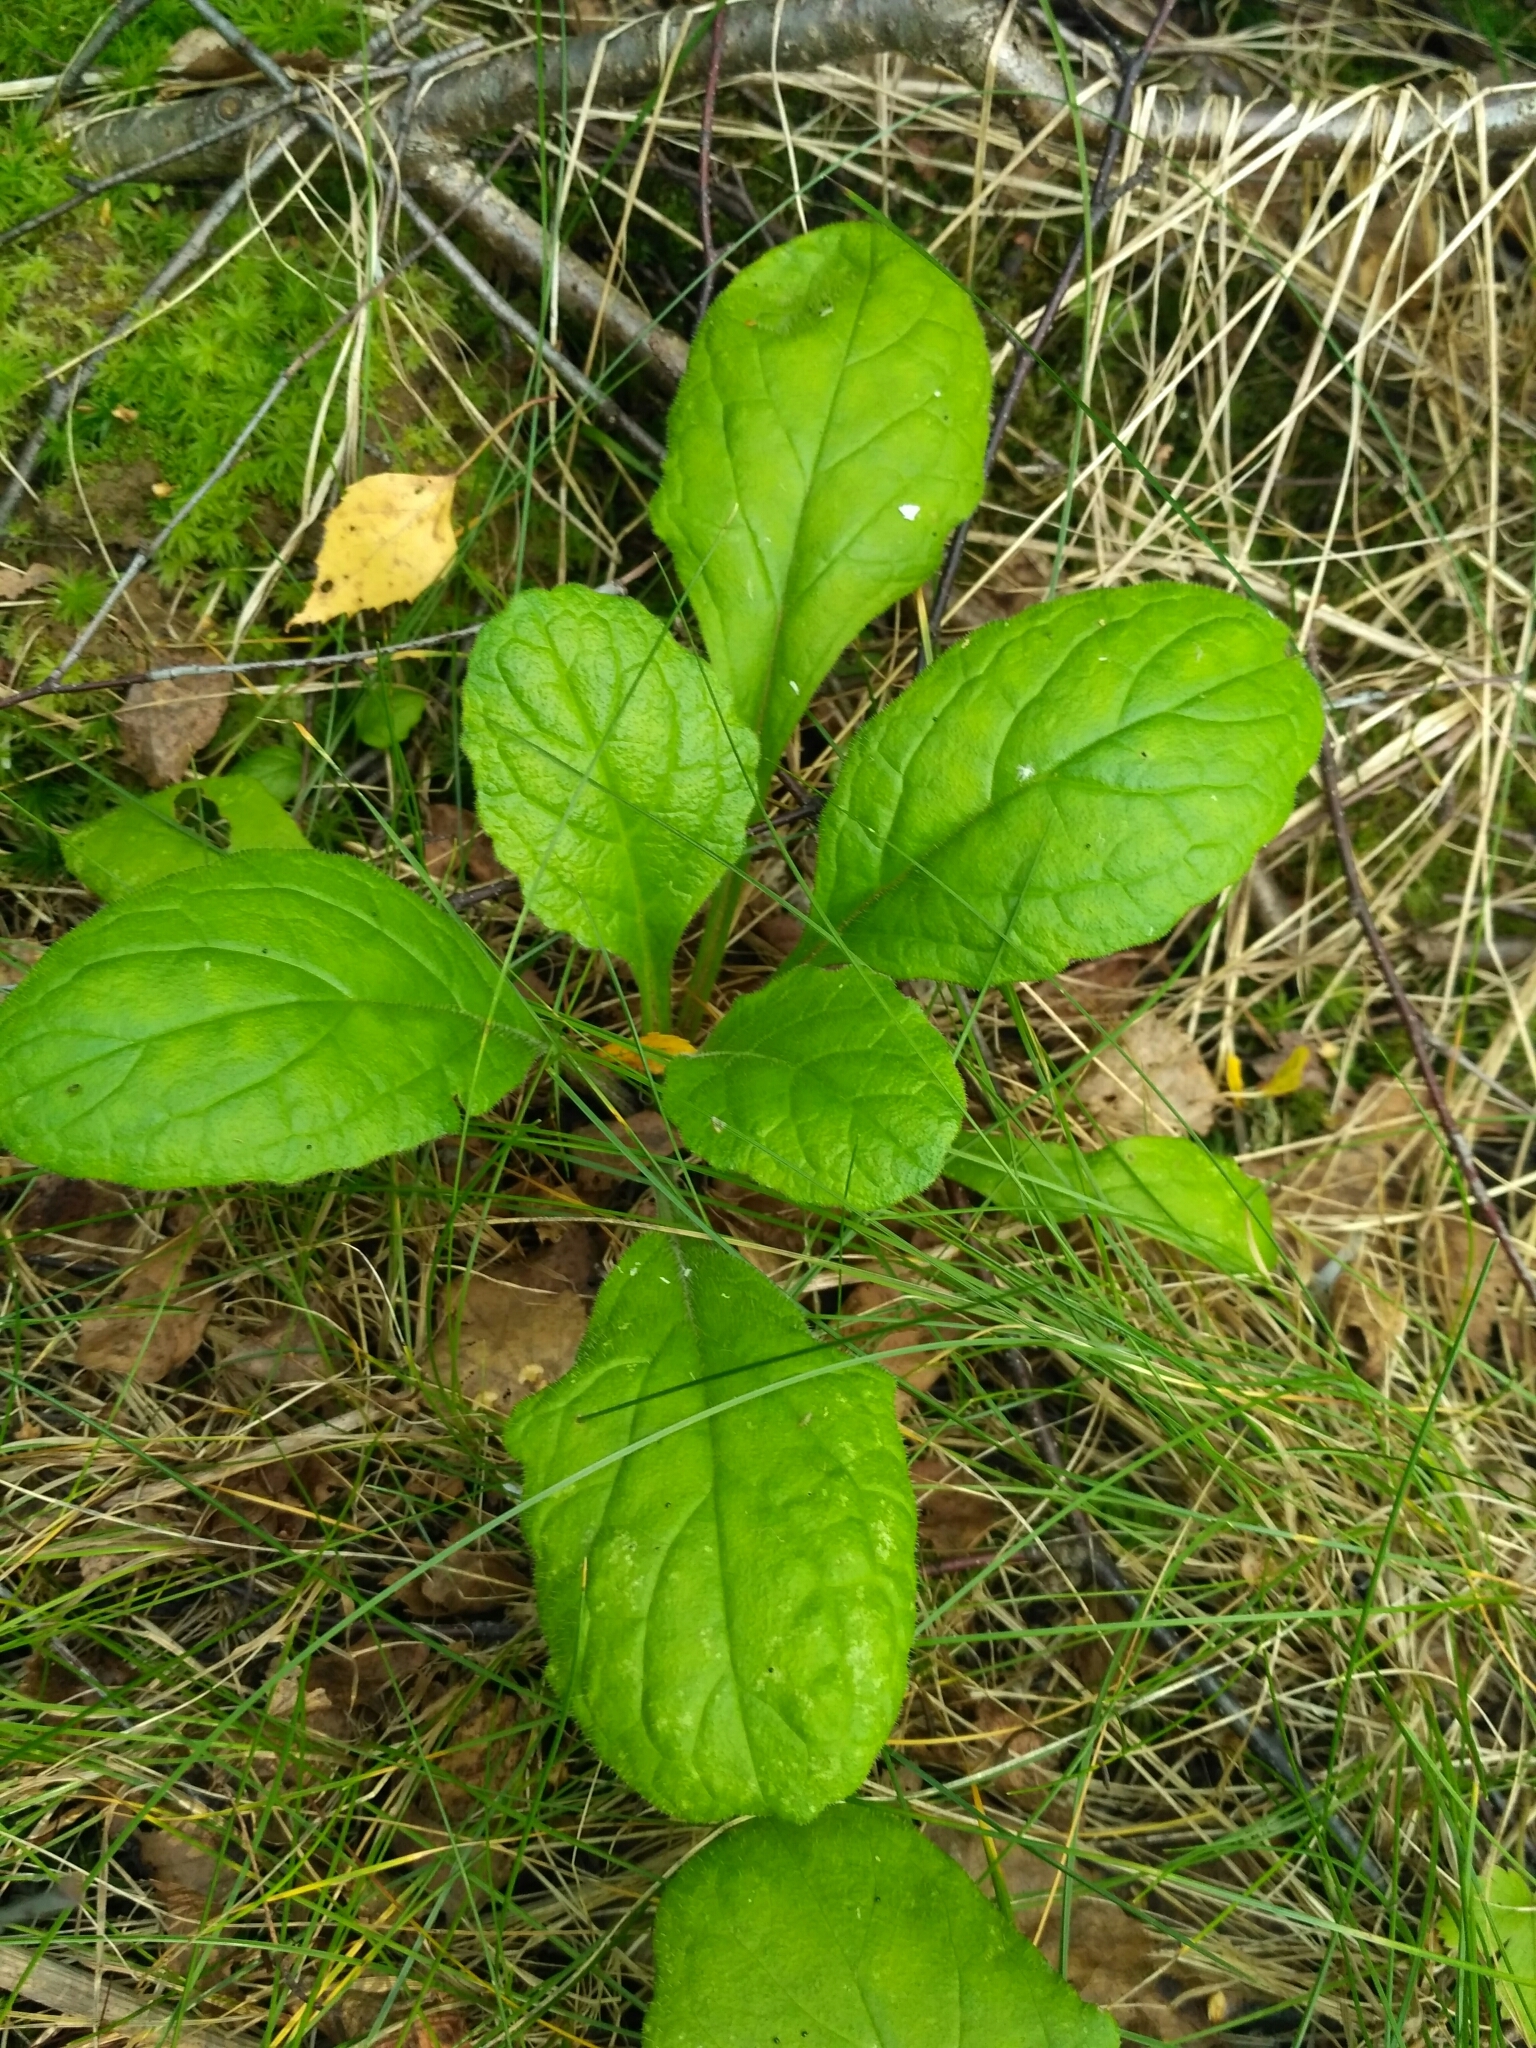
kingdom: Plantae
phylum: Tracheophyta
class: Magnoliopsida
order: Lamiales
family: Lamiaceae
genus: Ajuga
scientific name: Ajuga reptans
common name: Bugle
